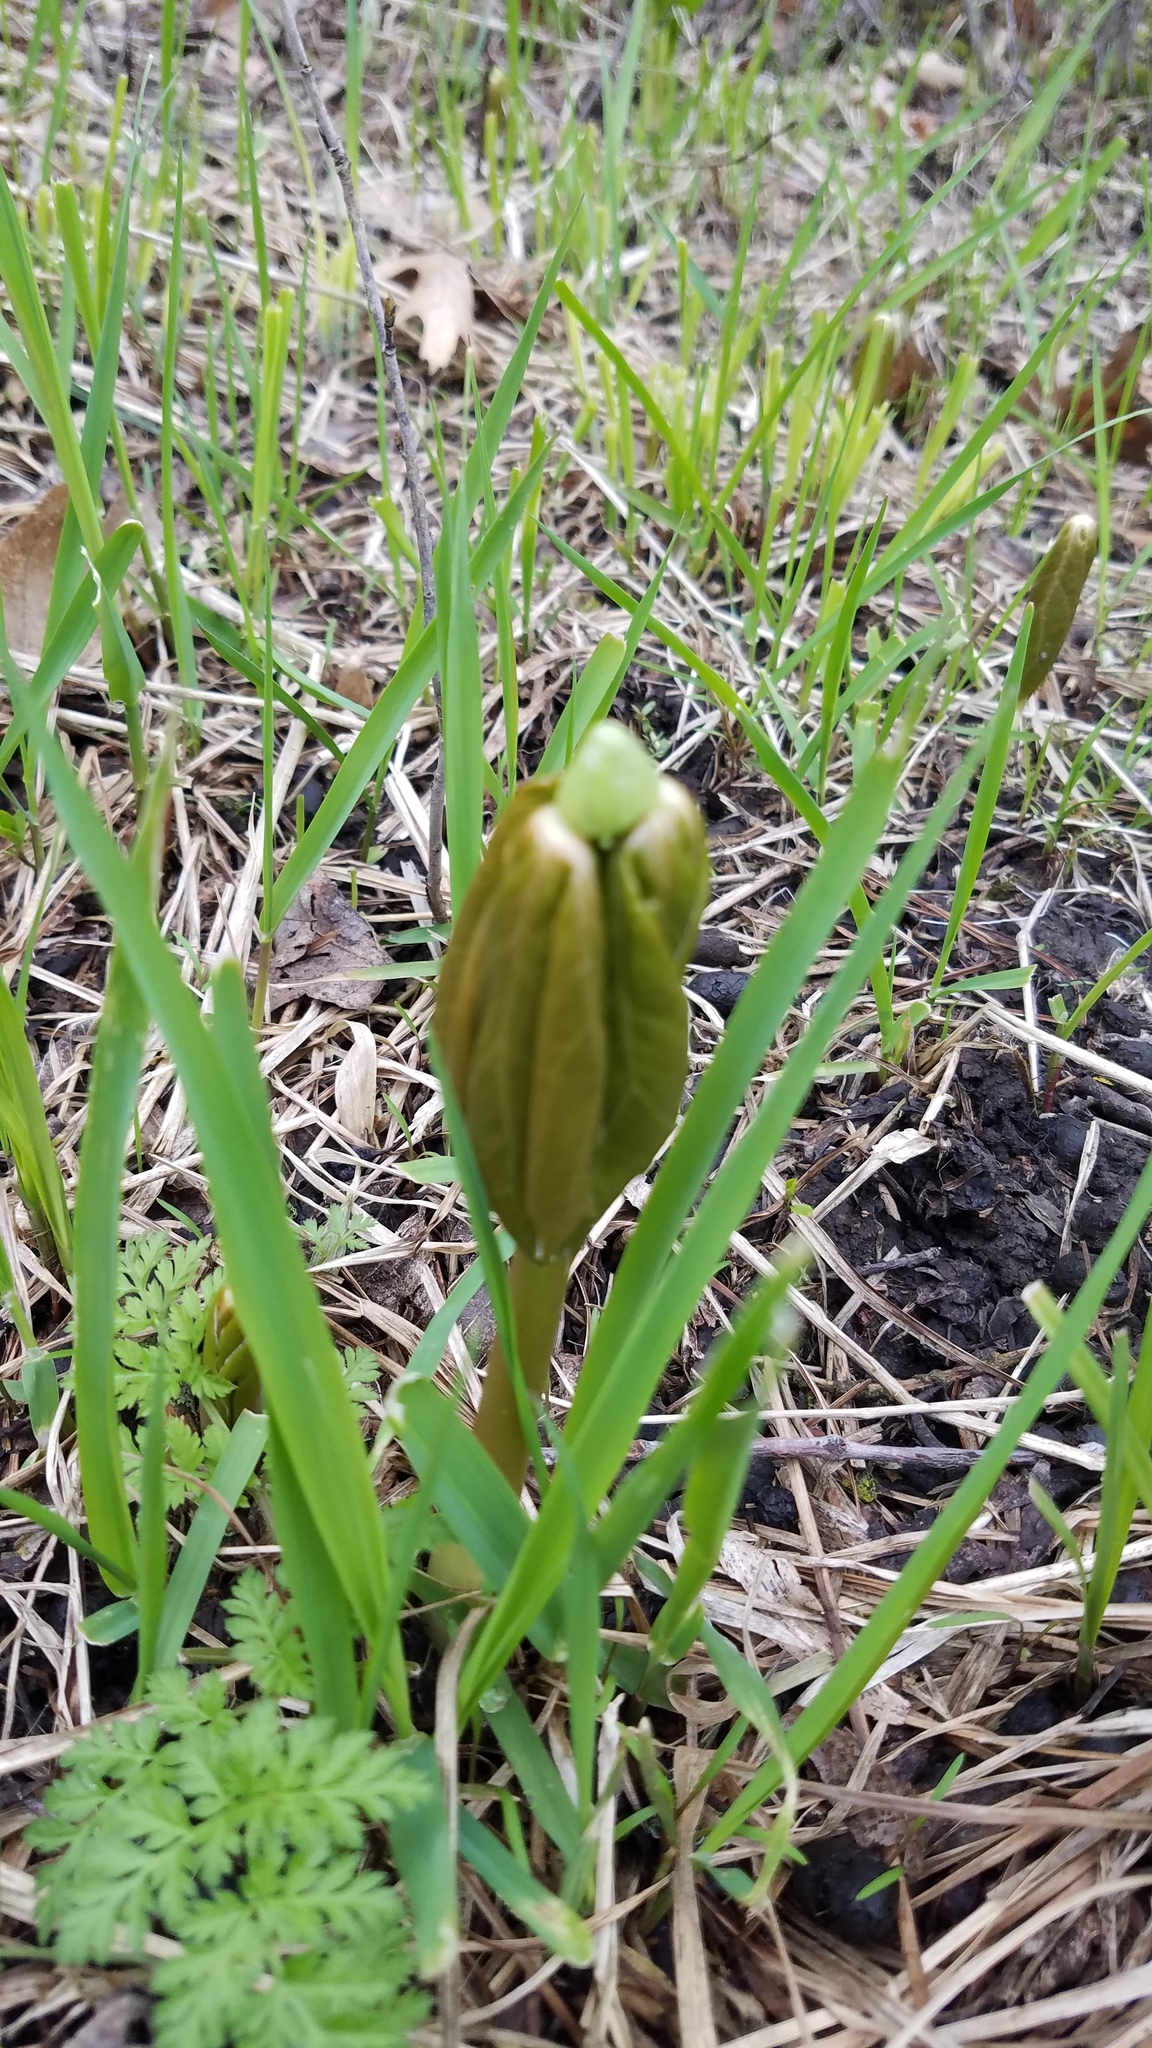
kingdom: Plantae
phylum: Tracheophyta
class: Magnoliopsida
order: Ranunculales
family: Berberidaceae
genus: Podophyllum
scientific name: Podophyllum peltatum
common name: Wild mandrake
